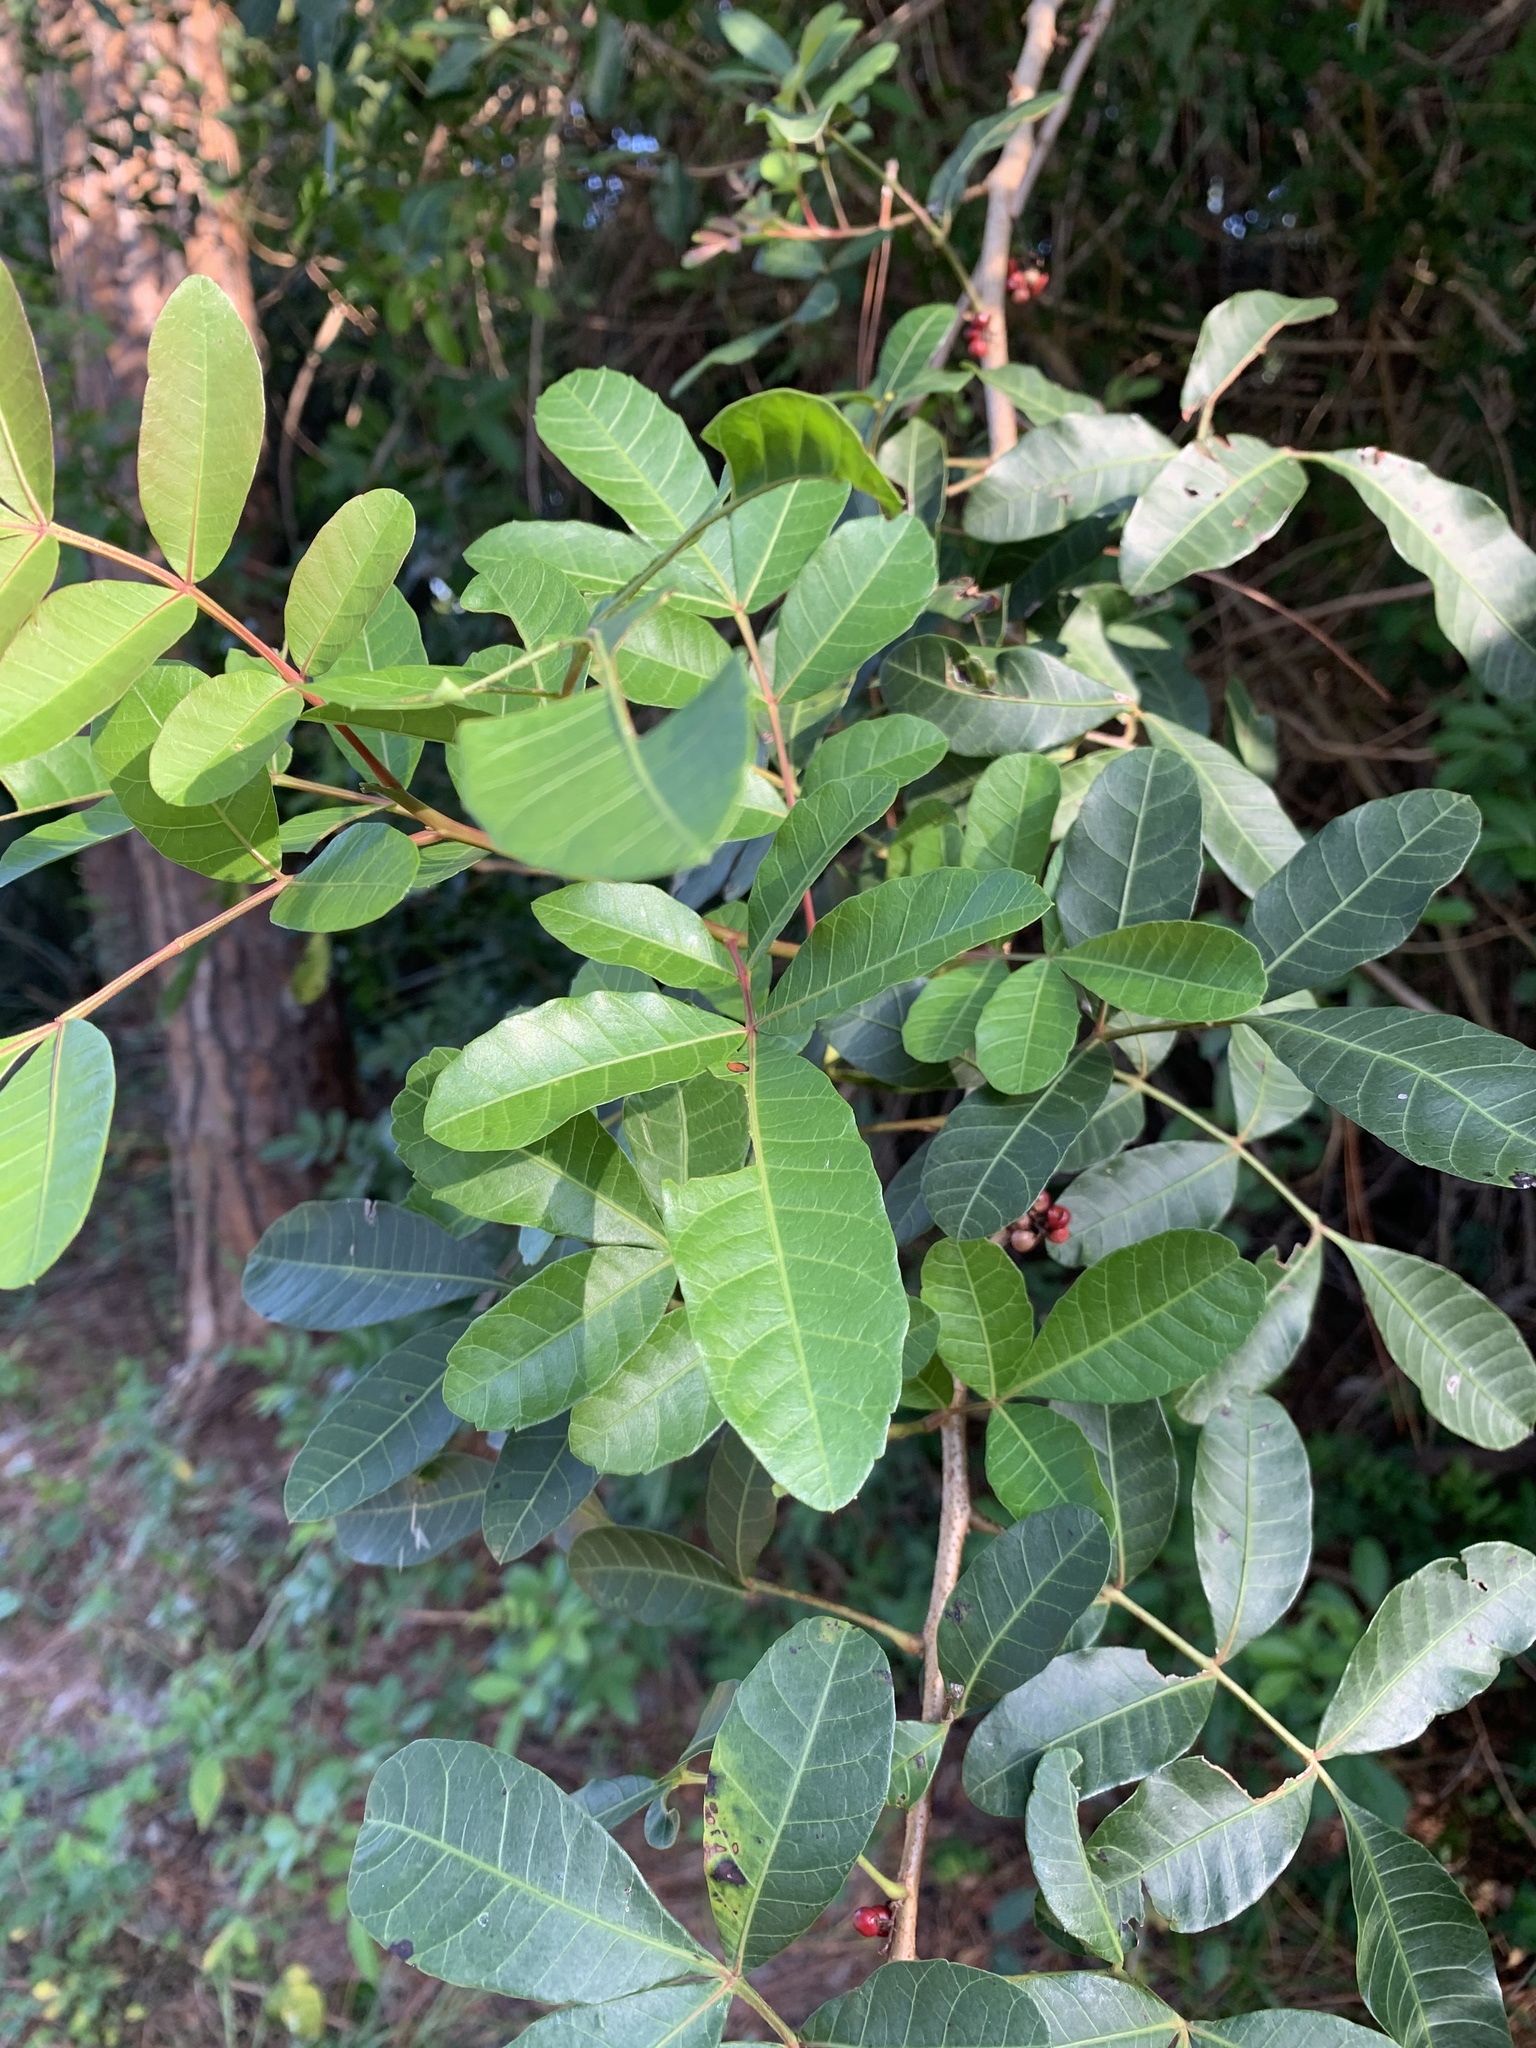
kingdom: Plantae
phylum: Tracheophyta
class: Magnoliopsida
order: Sapindales
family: Anacardiaceae
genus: Schinus
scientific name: Schinus terebinthifolia
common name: Brazilian peppertree
